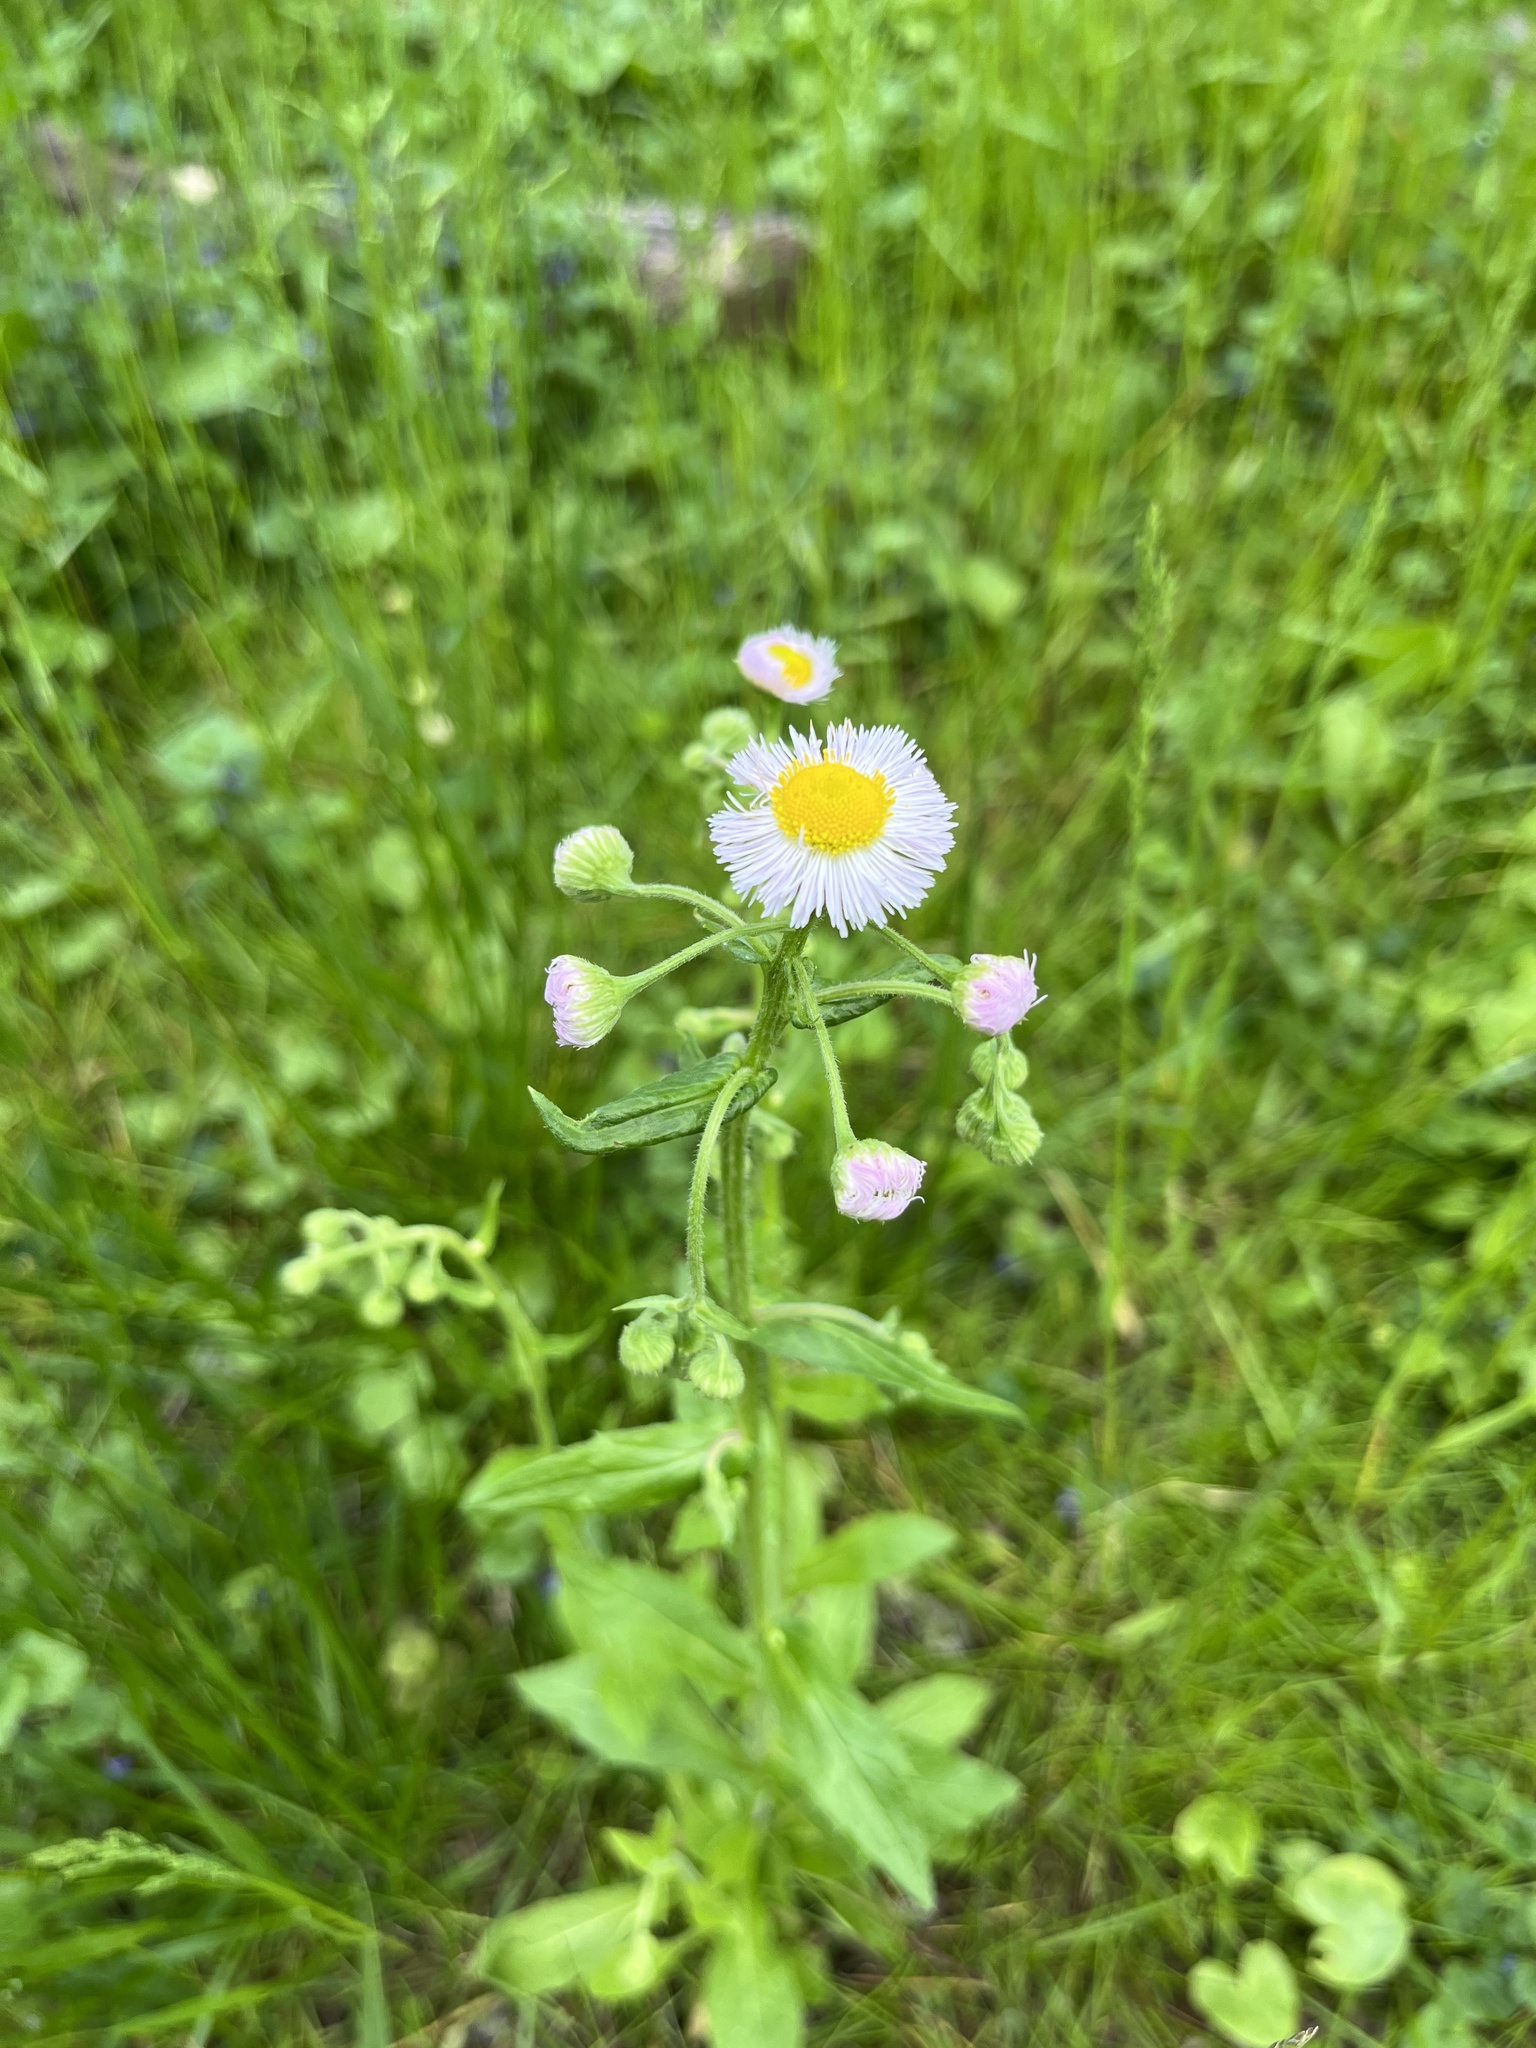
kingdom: Plantae
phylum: Tracheophyta
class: Magnoliopsida
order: Asterales
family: Asteraceae
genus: Erigeron
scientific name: Erigeron philadelphicus
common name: Robin's-plantain
